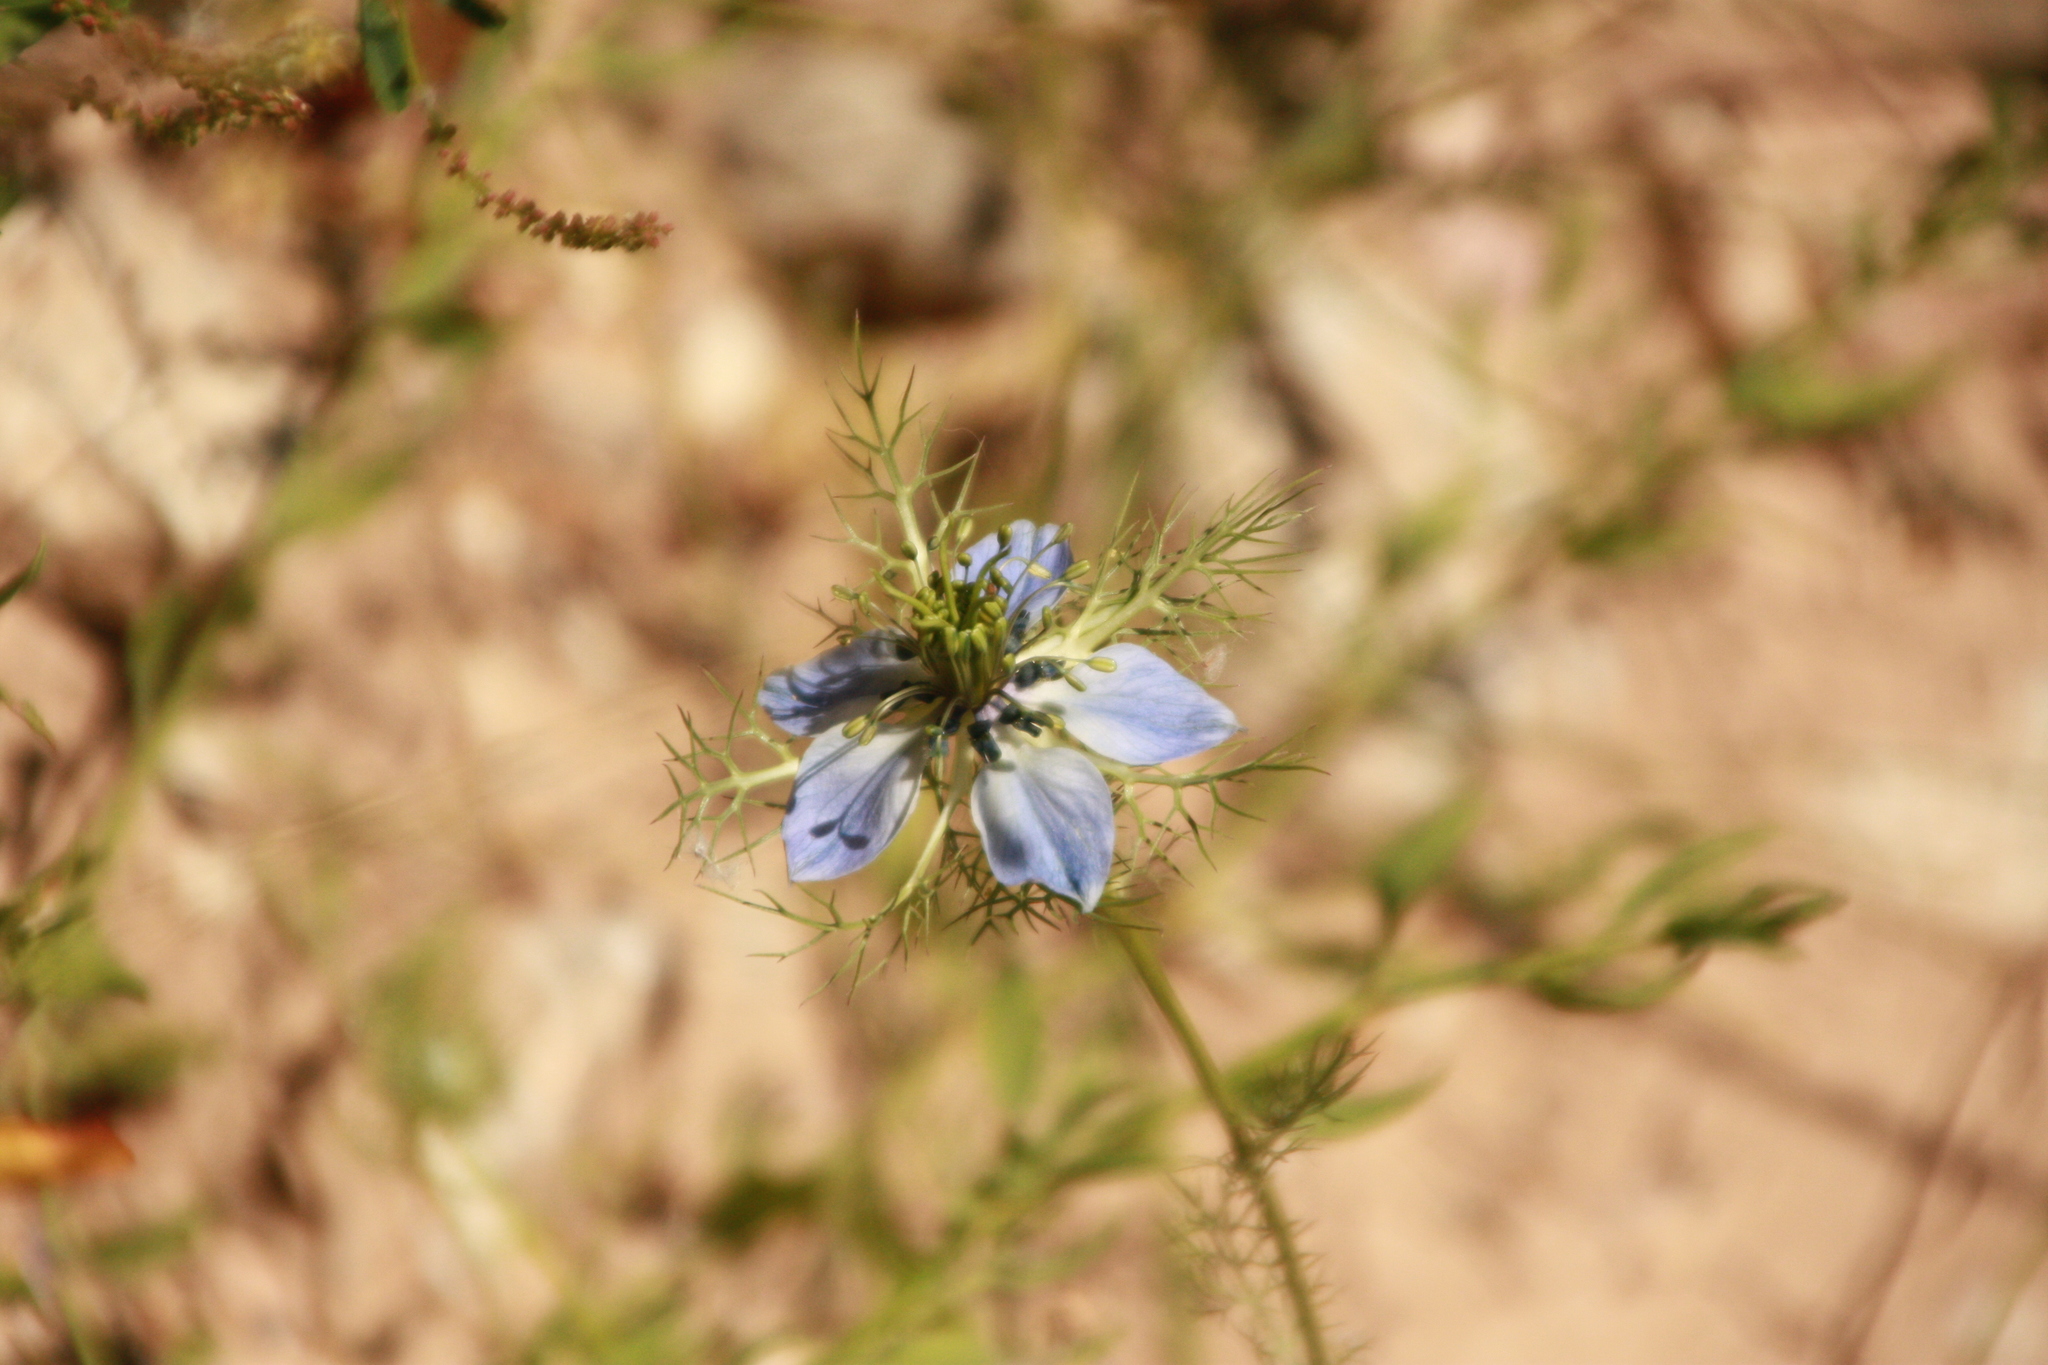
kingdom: Plantae
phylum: Tracheophyta
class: Magnoliopsida
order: Ranunculales
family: Ranunculaceae
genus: Nigella
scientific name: Nigella damascena
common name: Love-in-a-mist
